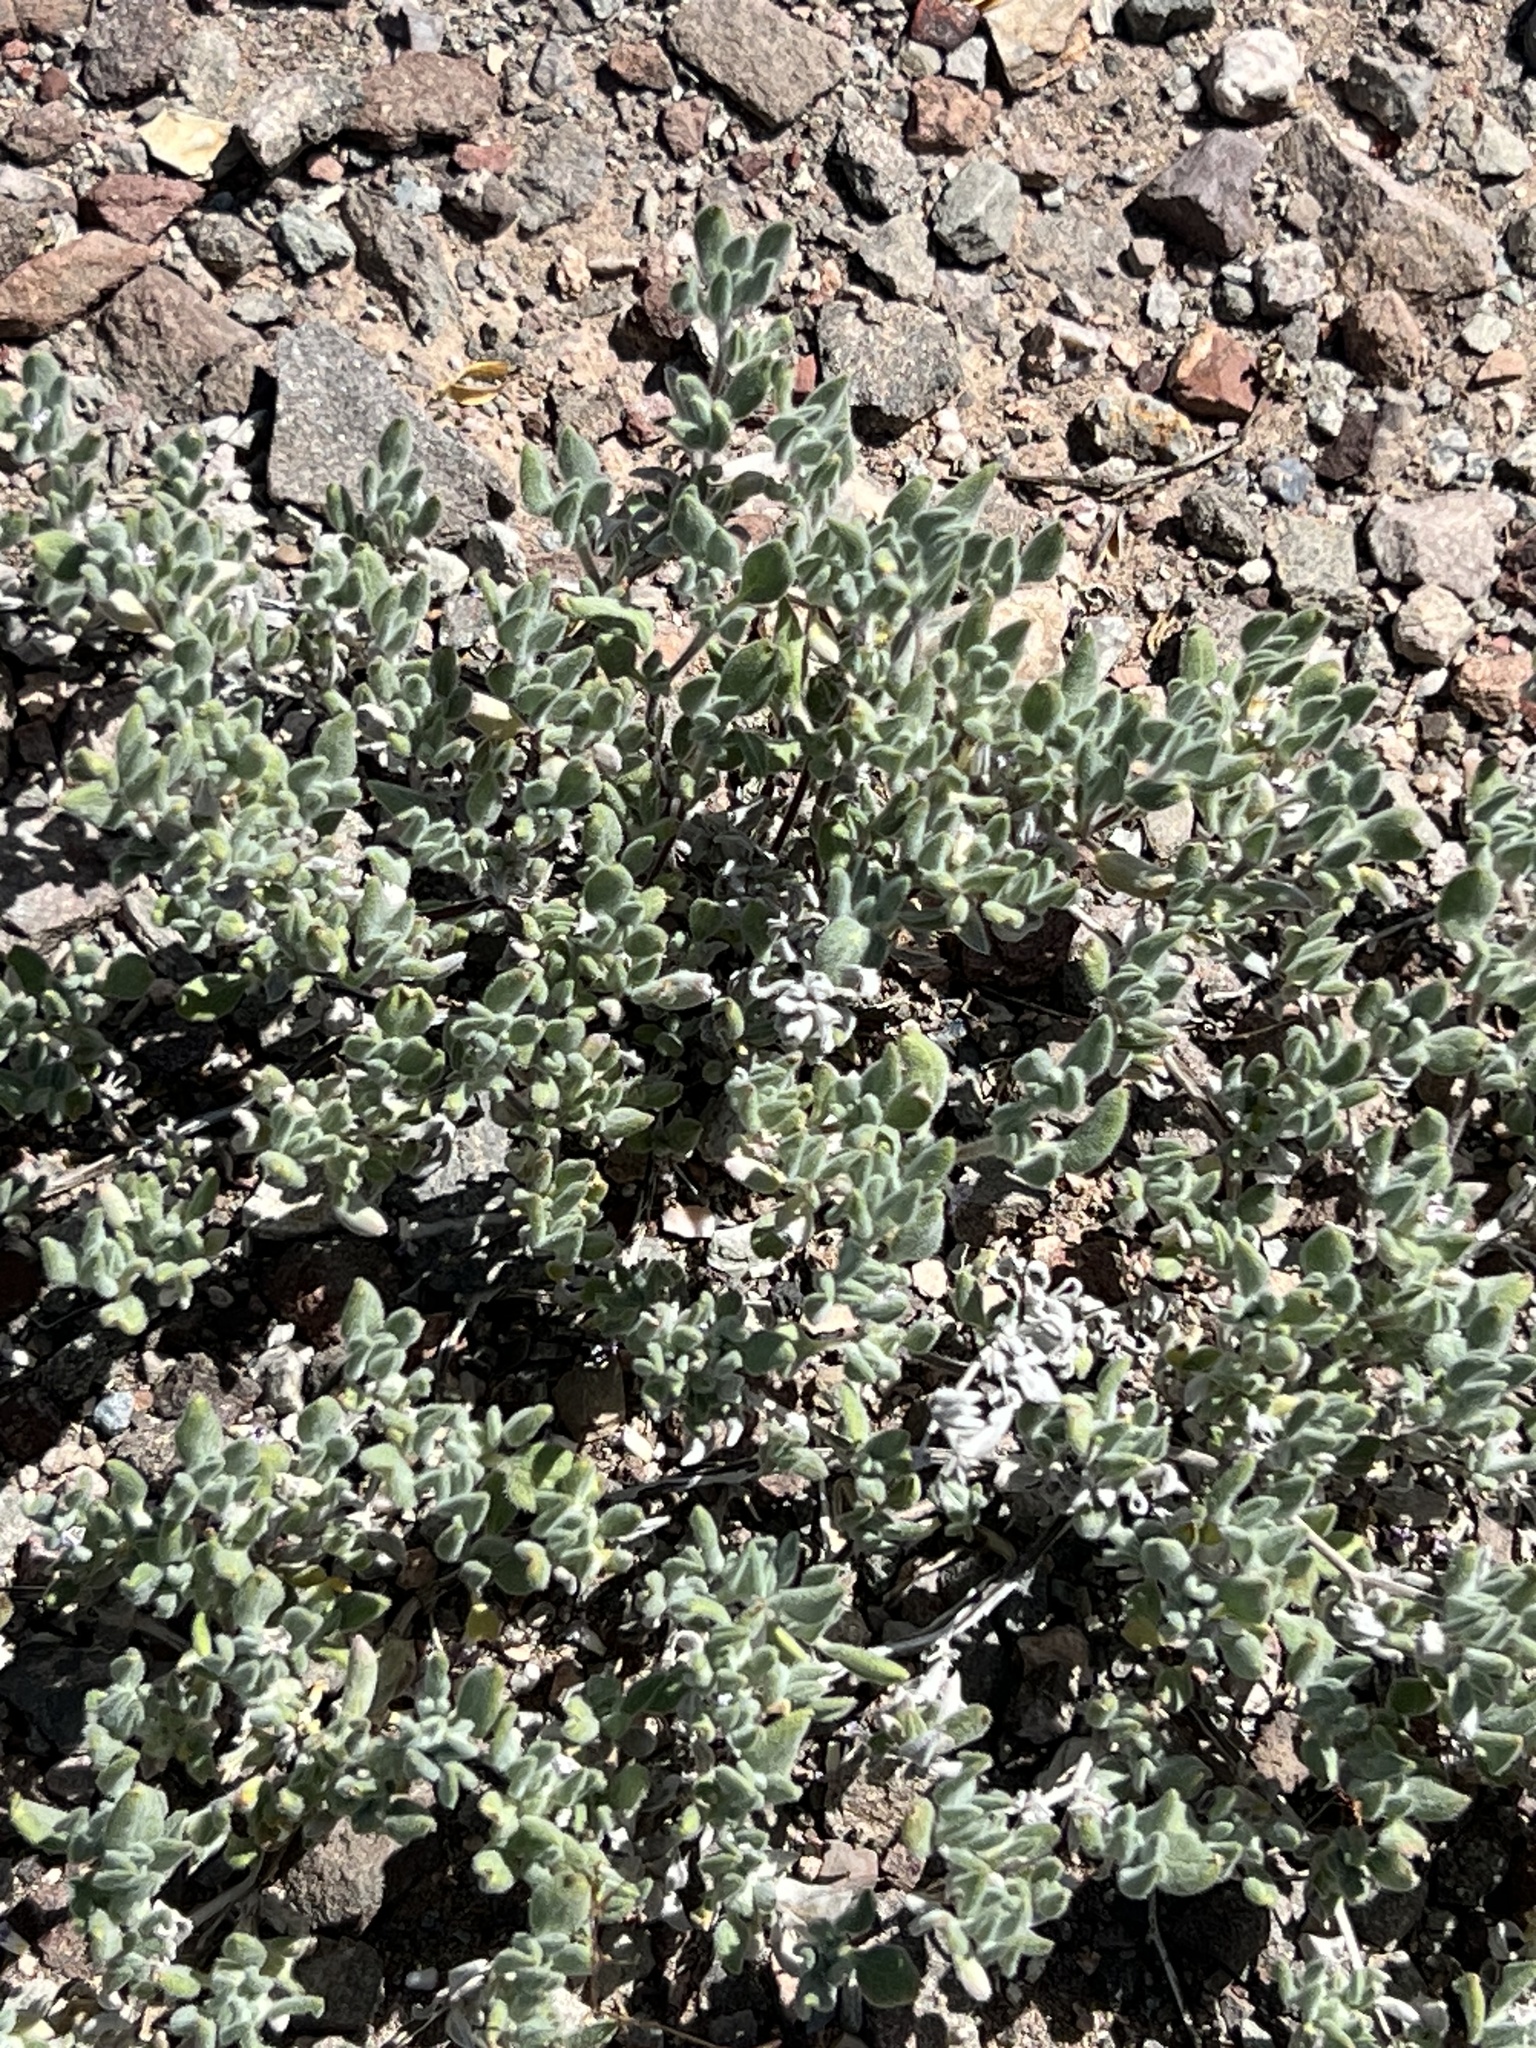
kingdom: Plantae
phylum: Tracheophyta
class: Magnoliopsida
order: Boraginales
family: Ehretiaceae
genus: Tiquilia
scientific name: Tiquilia canescens
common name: Hairy tiquilia
